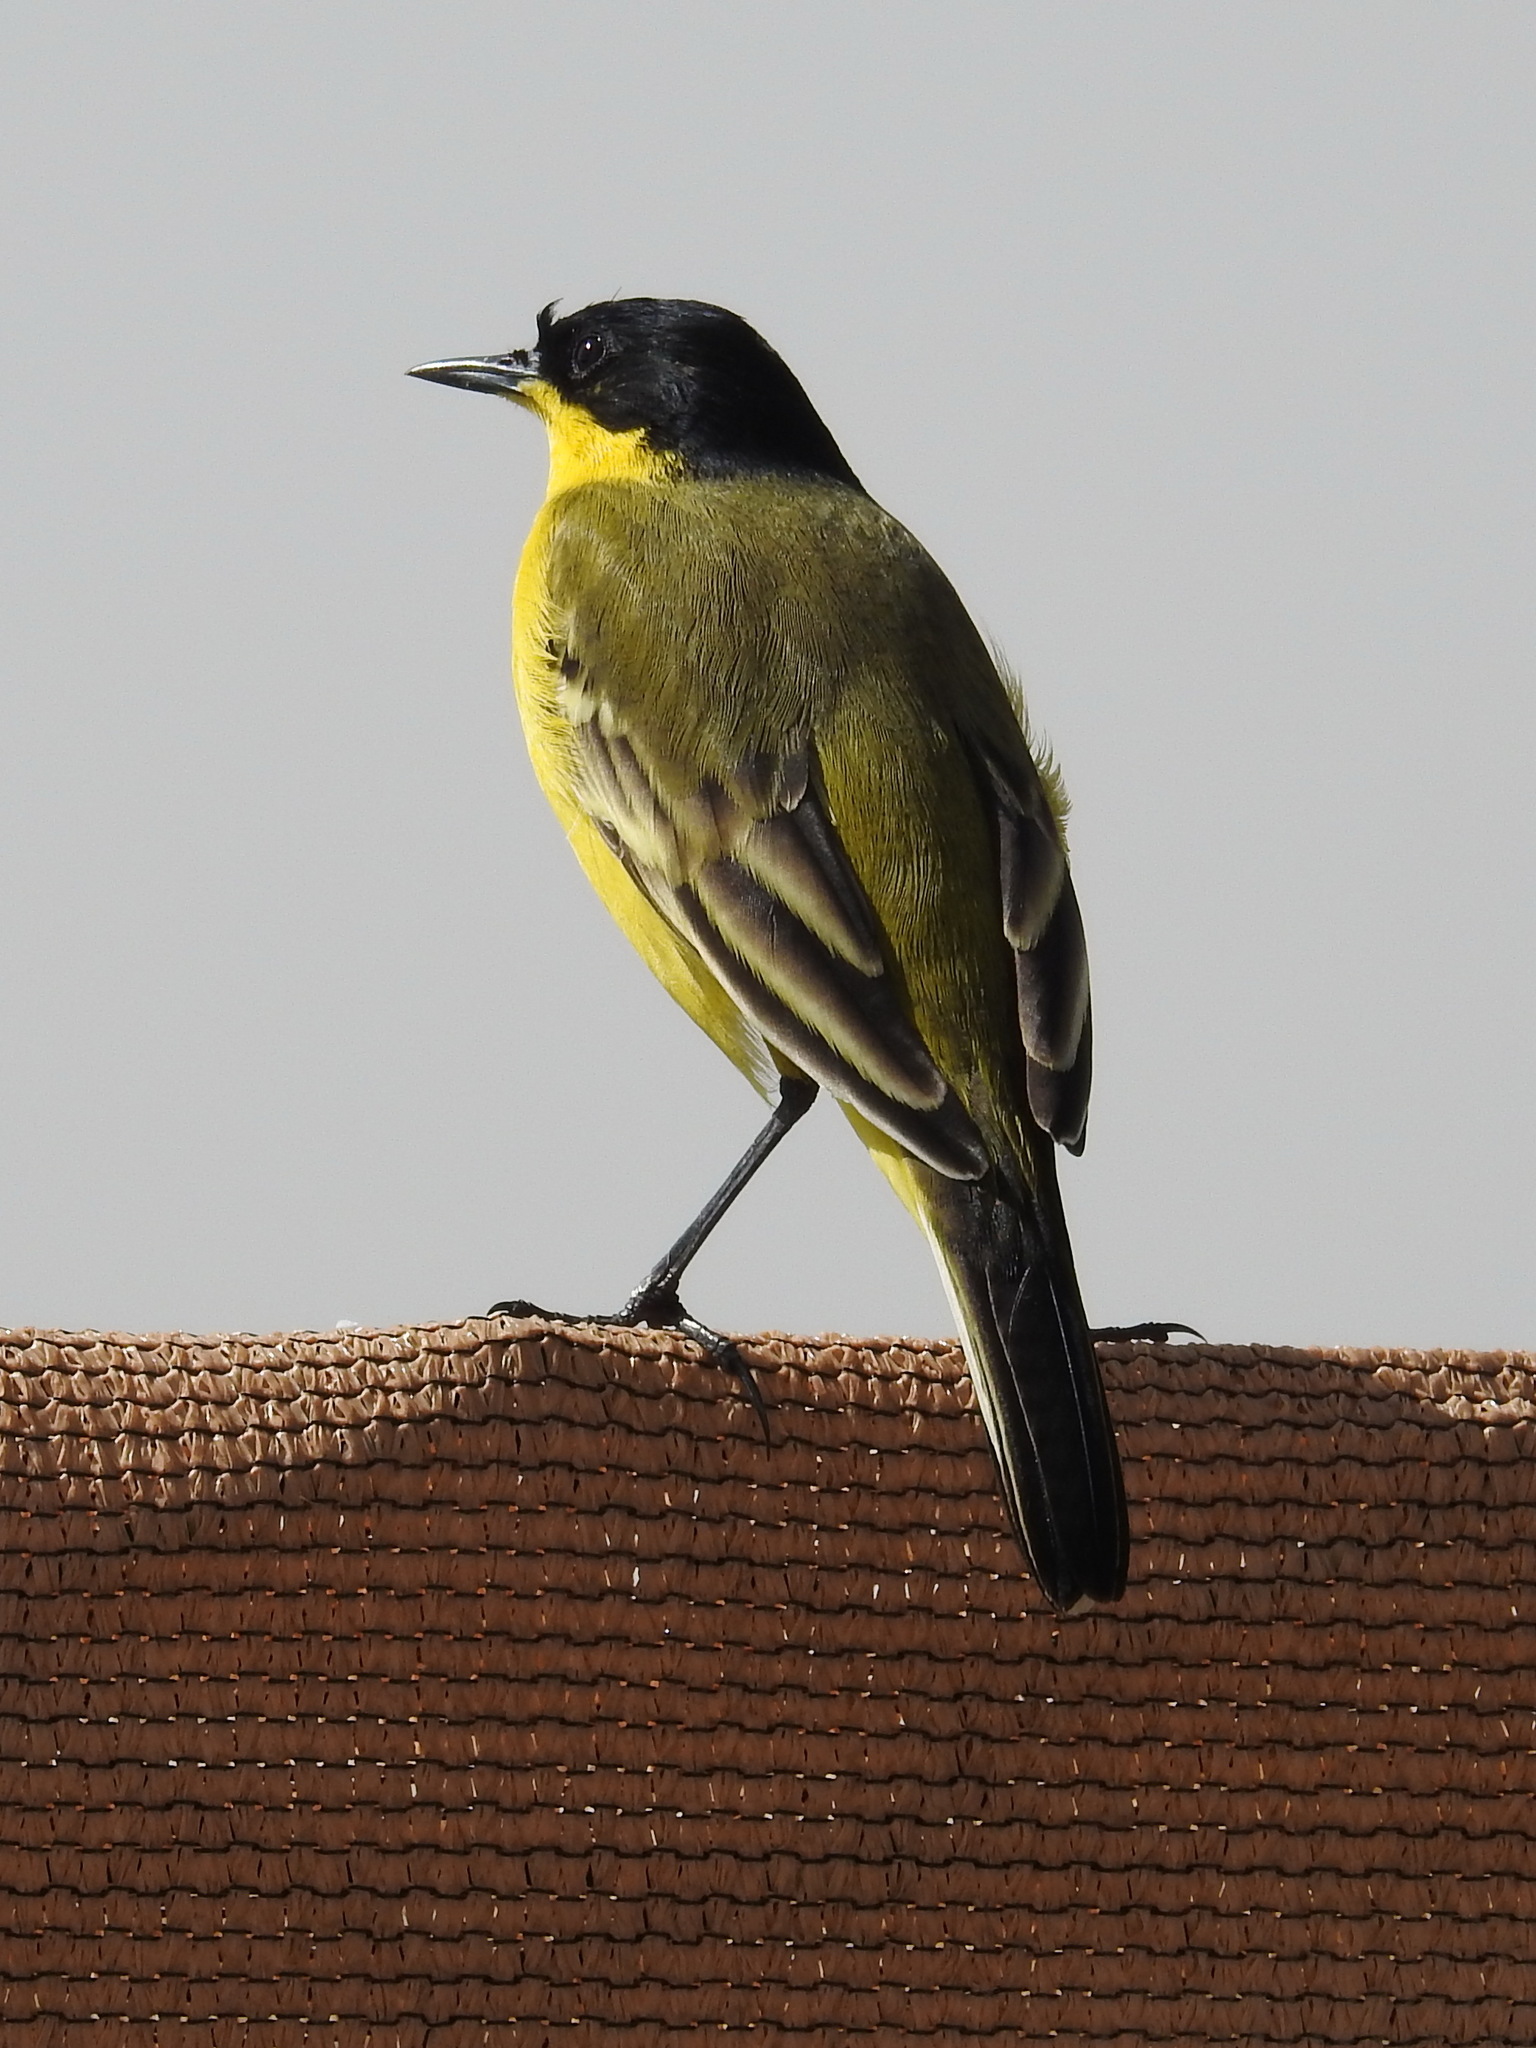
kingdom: Animalia
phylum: Chordata
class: Aves
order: Passeriformes
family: Motacillidae
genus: Motacilla
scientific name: Motacilla flava
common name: Western yellow wagtail
